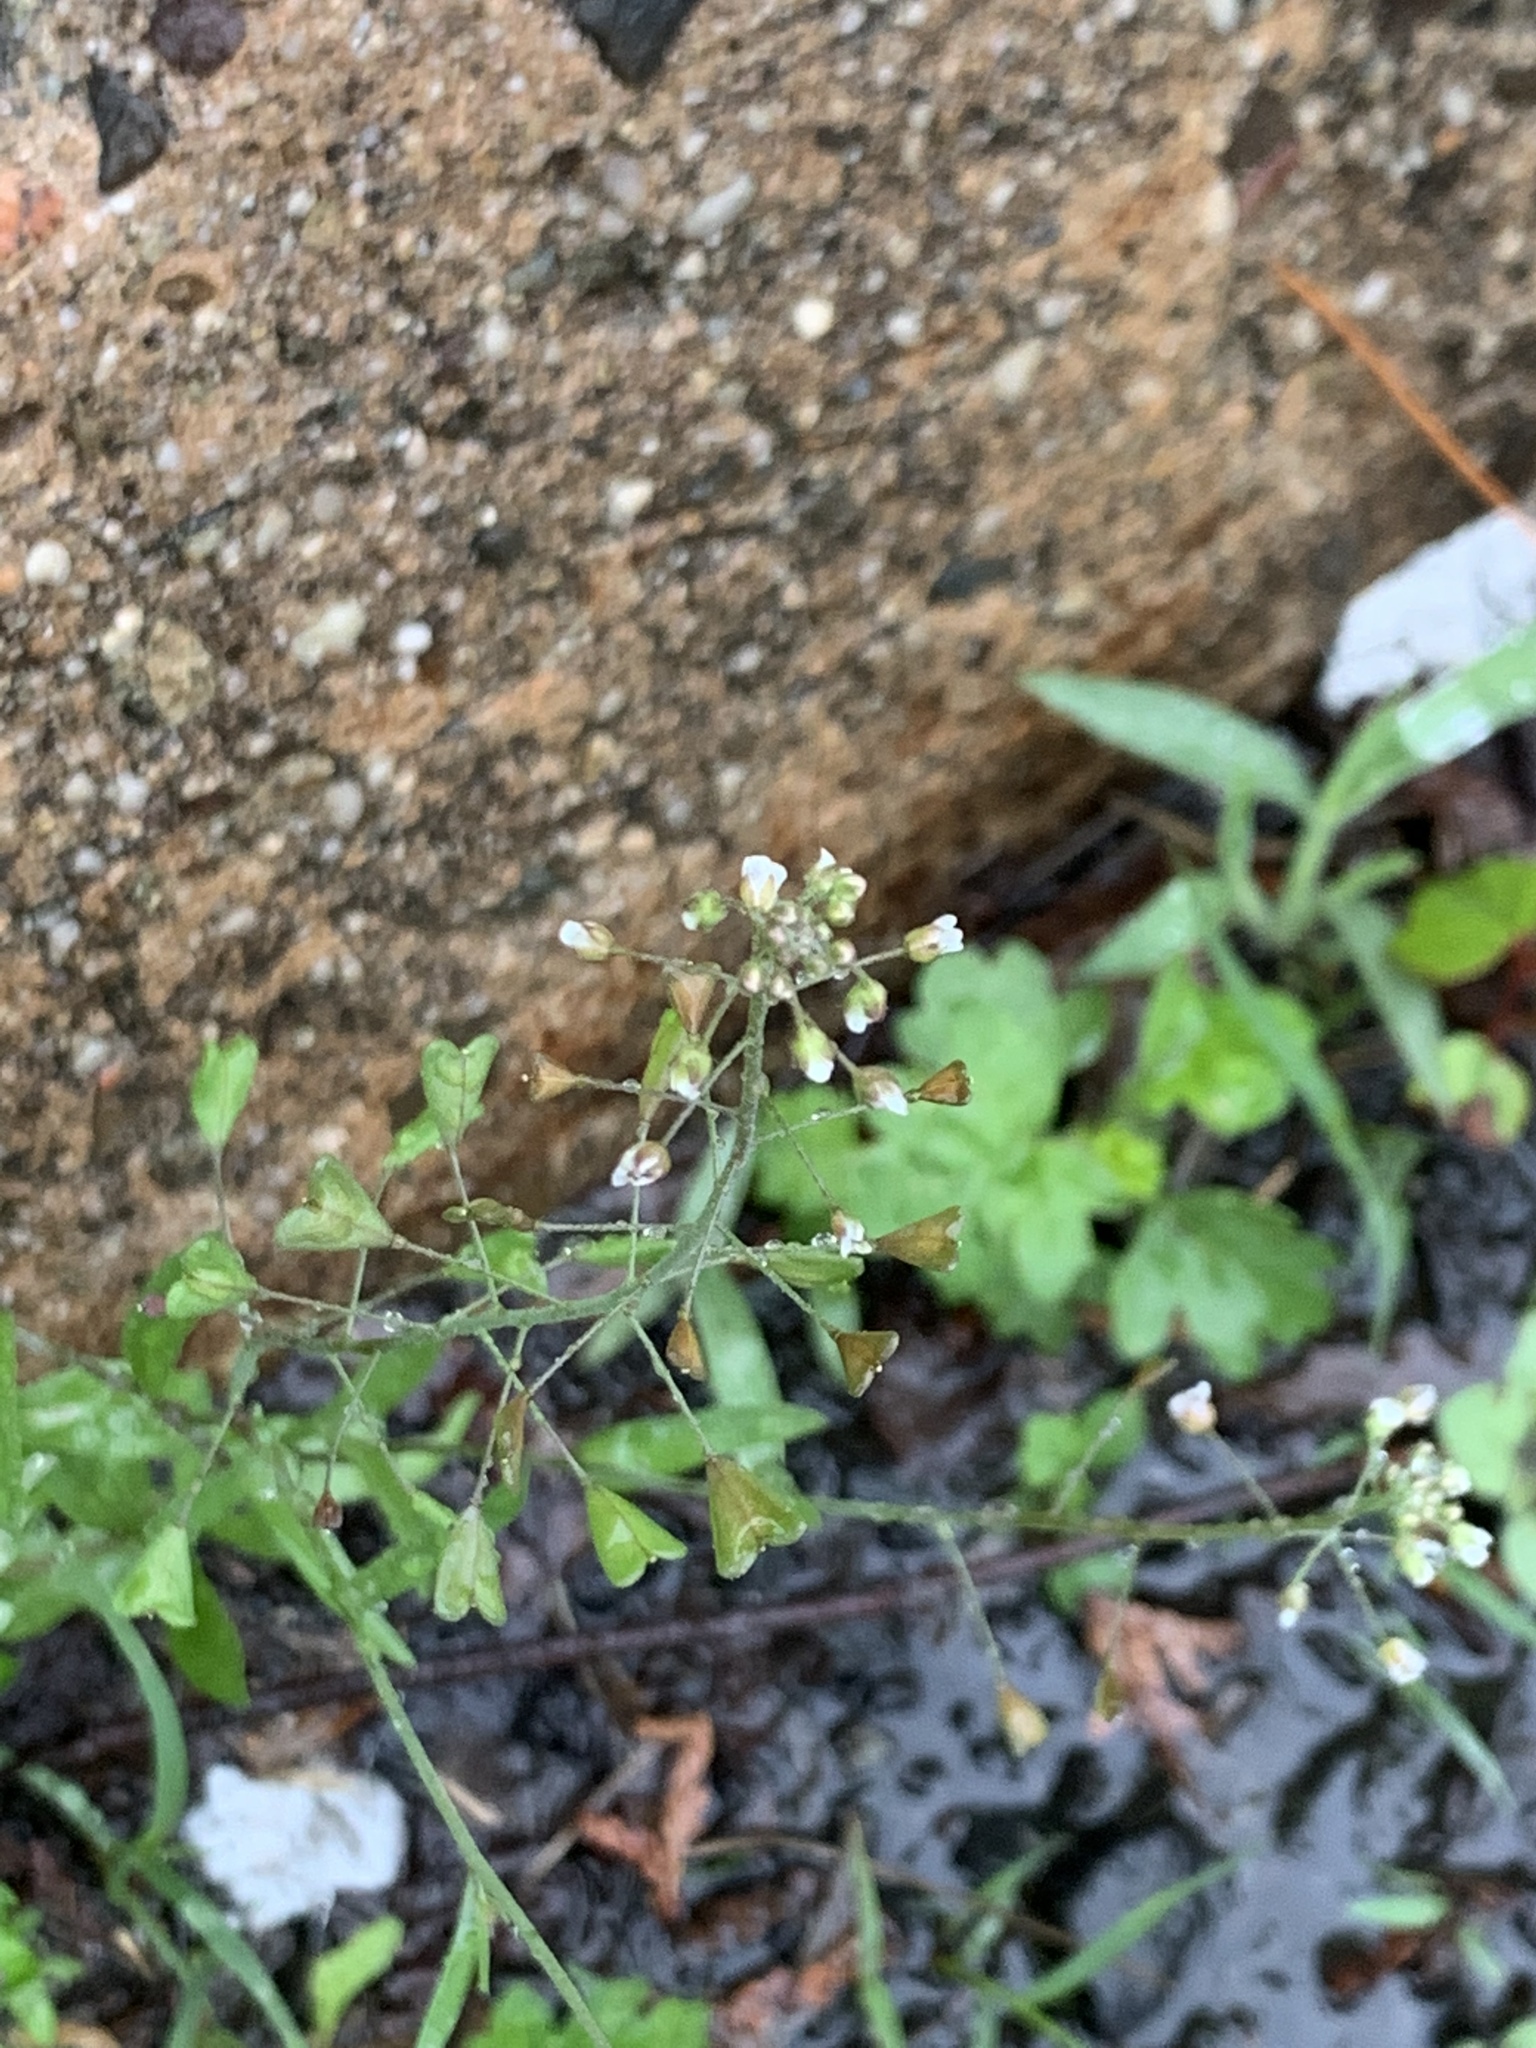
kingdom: Plantae
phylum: Tracheophyta
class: Magnoliopsida
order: Brassicales
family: Brassicaceae
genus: Capsella
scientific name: Capsella bursa-pastoris
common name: Shepherd's purse
